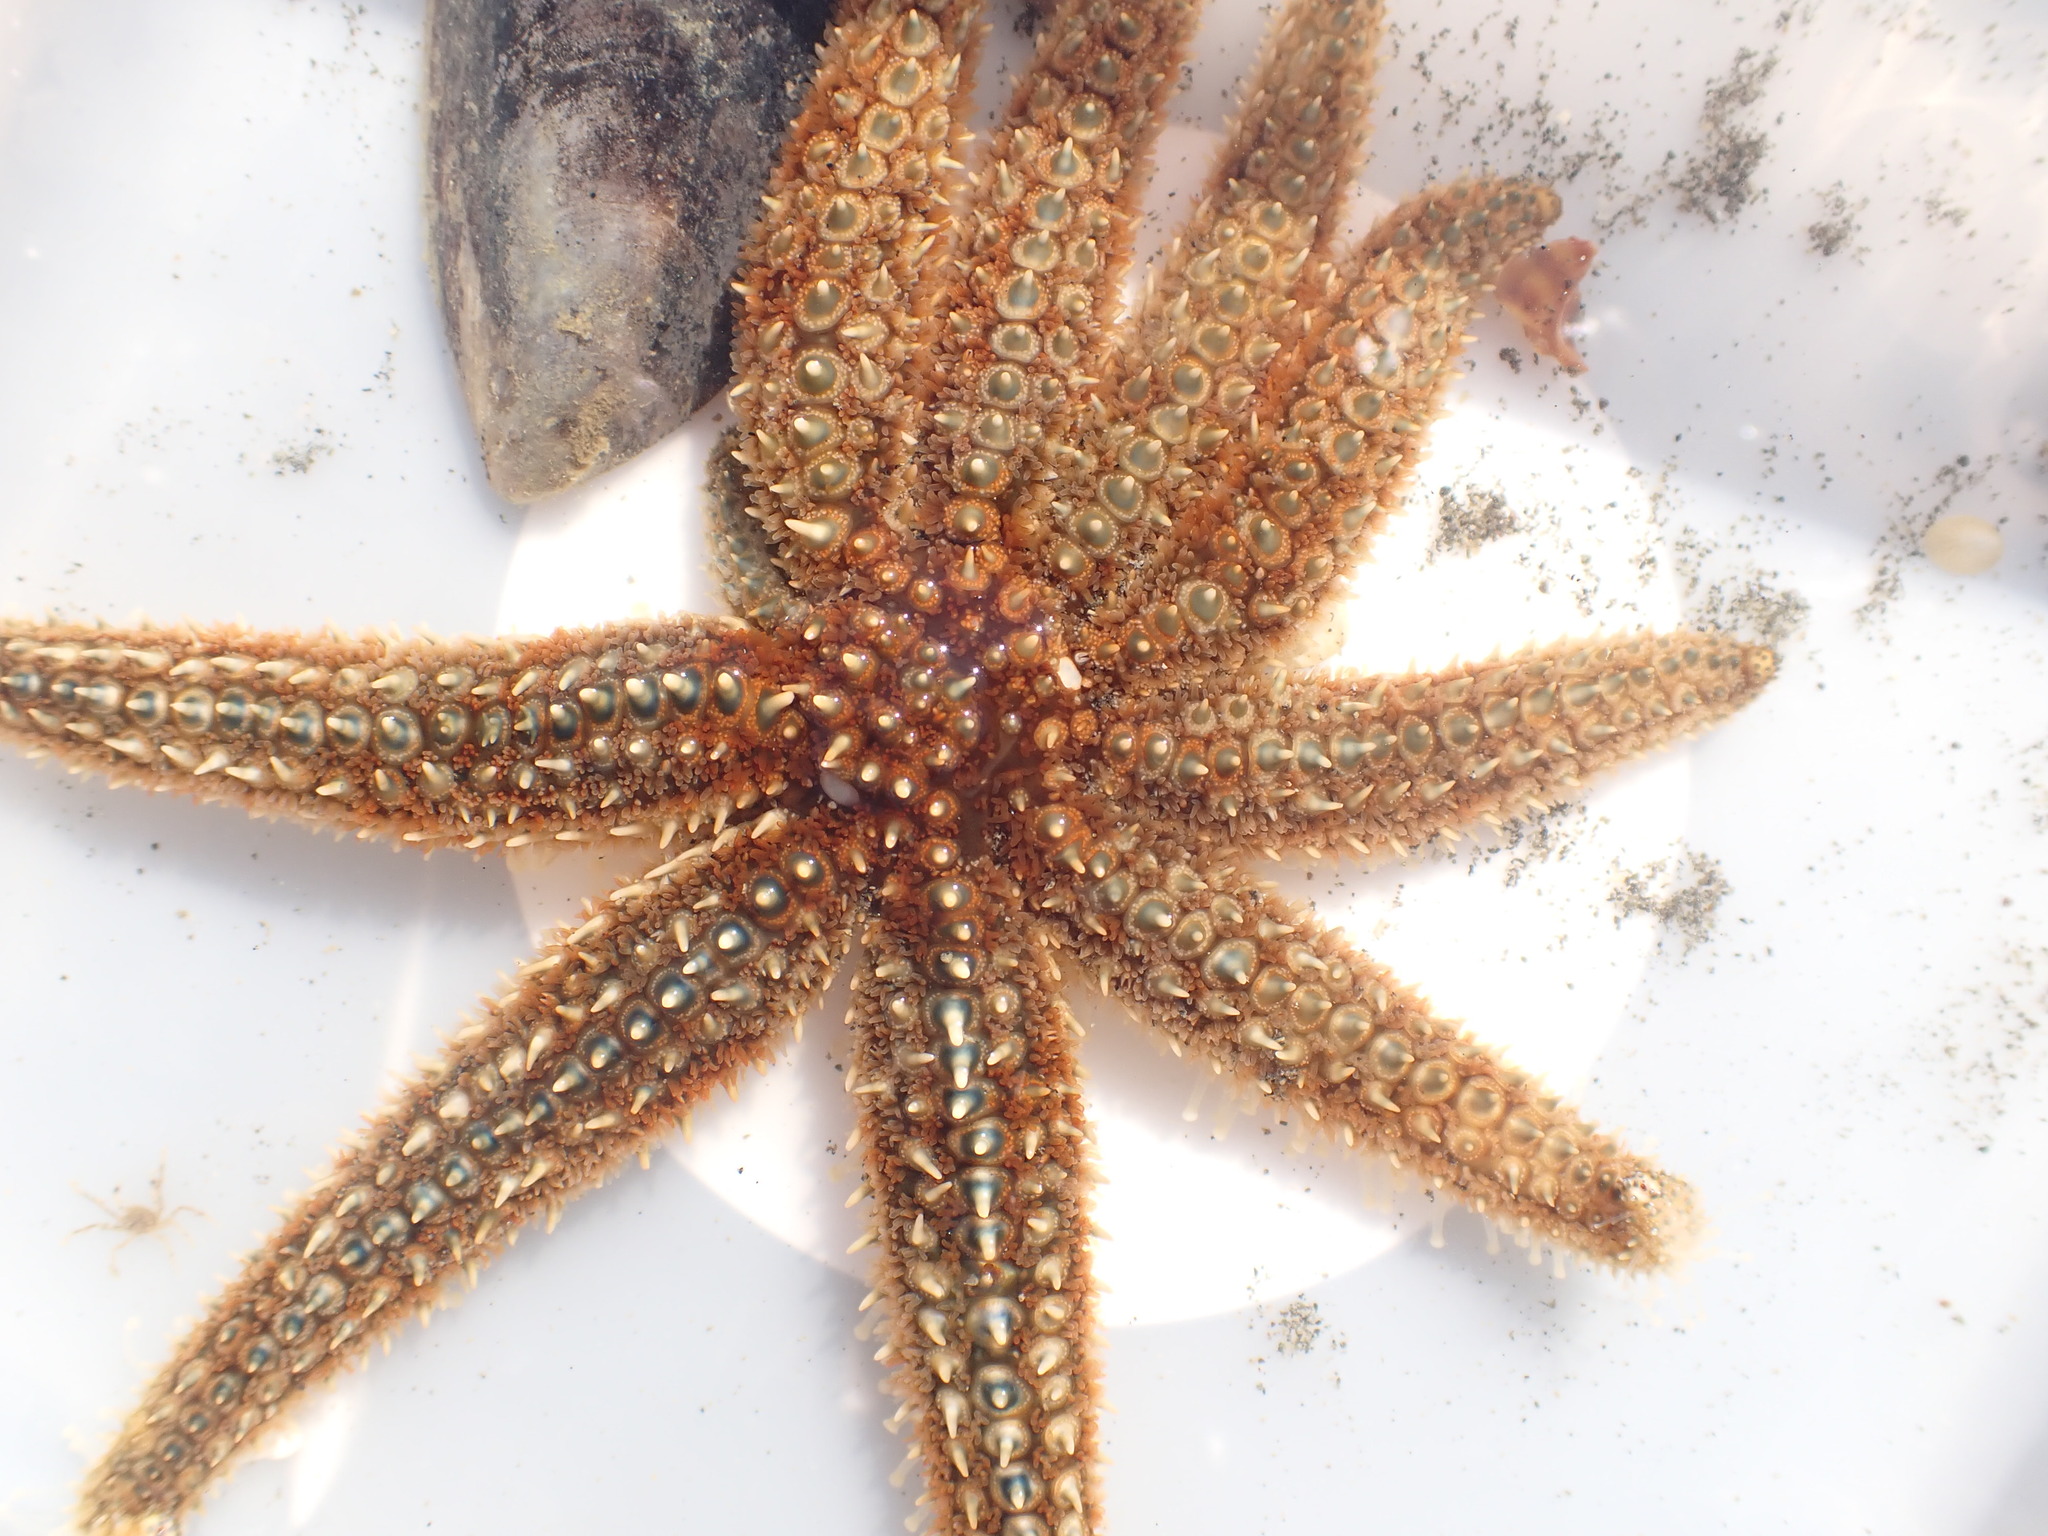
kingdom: Animalia
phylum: Echinodermata
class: Asteroidea
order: Forcipulatida
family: Asteriidae
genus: Coscinasterias
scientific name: Coscinasterias muricata
